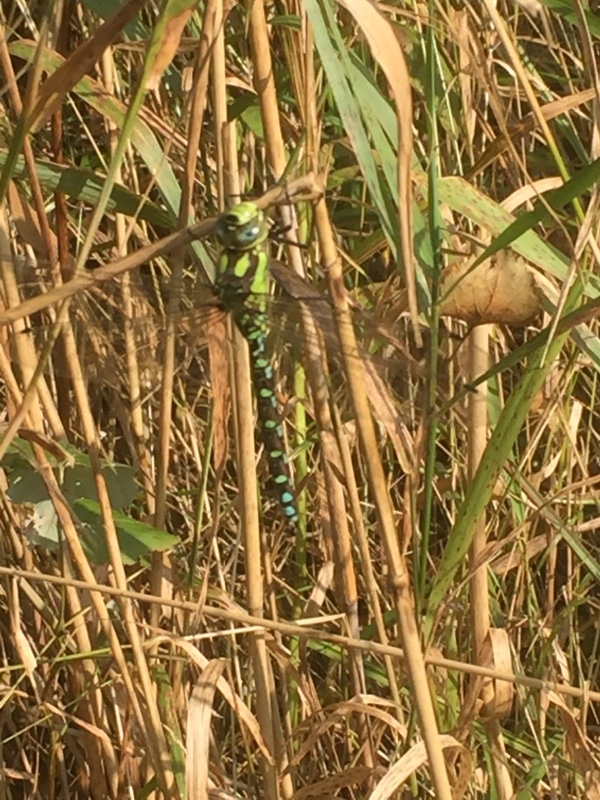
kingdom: Animalia
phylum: Arthropoda
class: Insecta
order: Odonata
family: Aeshnidae
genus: Aeshna
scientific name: Aeshna cyanea
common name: Southern hawker
